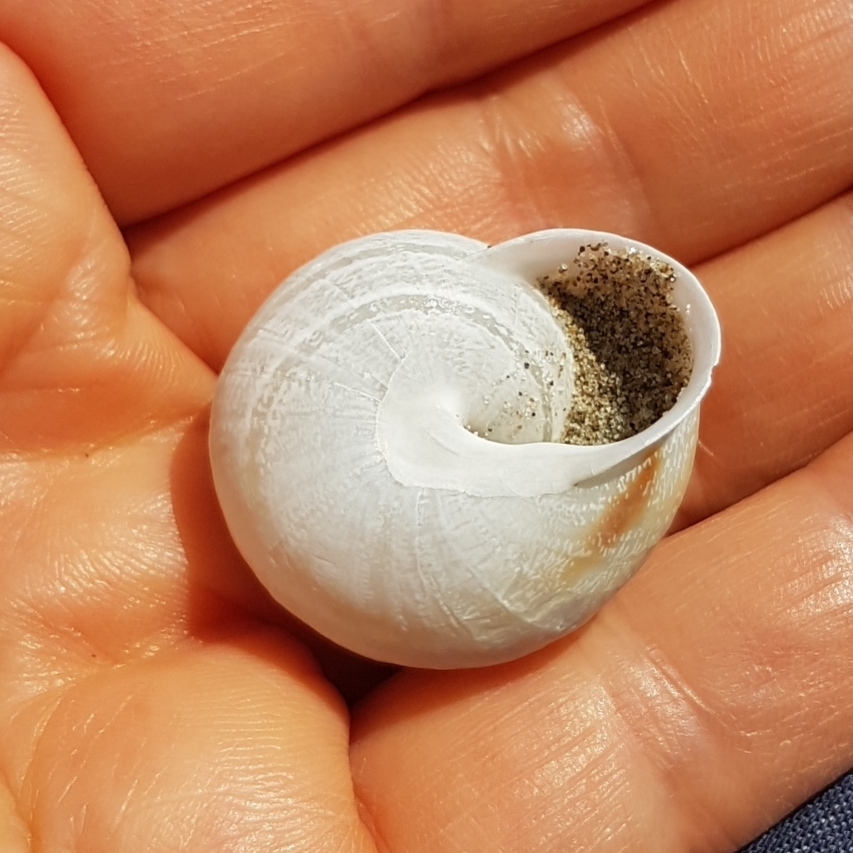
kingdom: Animalia
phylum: Mollusca
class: Gastropoda
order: Stylommatophora
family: Helicidae
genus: Eobania
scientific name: Eobania vermiculata
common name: Chocolateband snail
